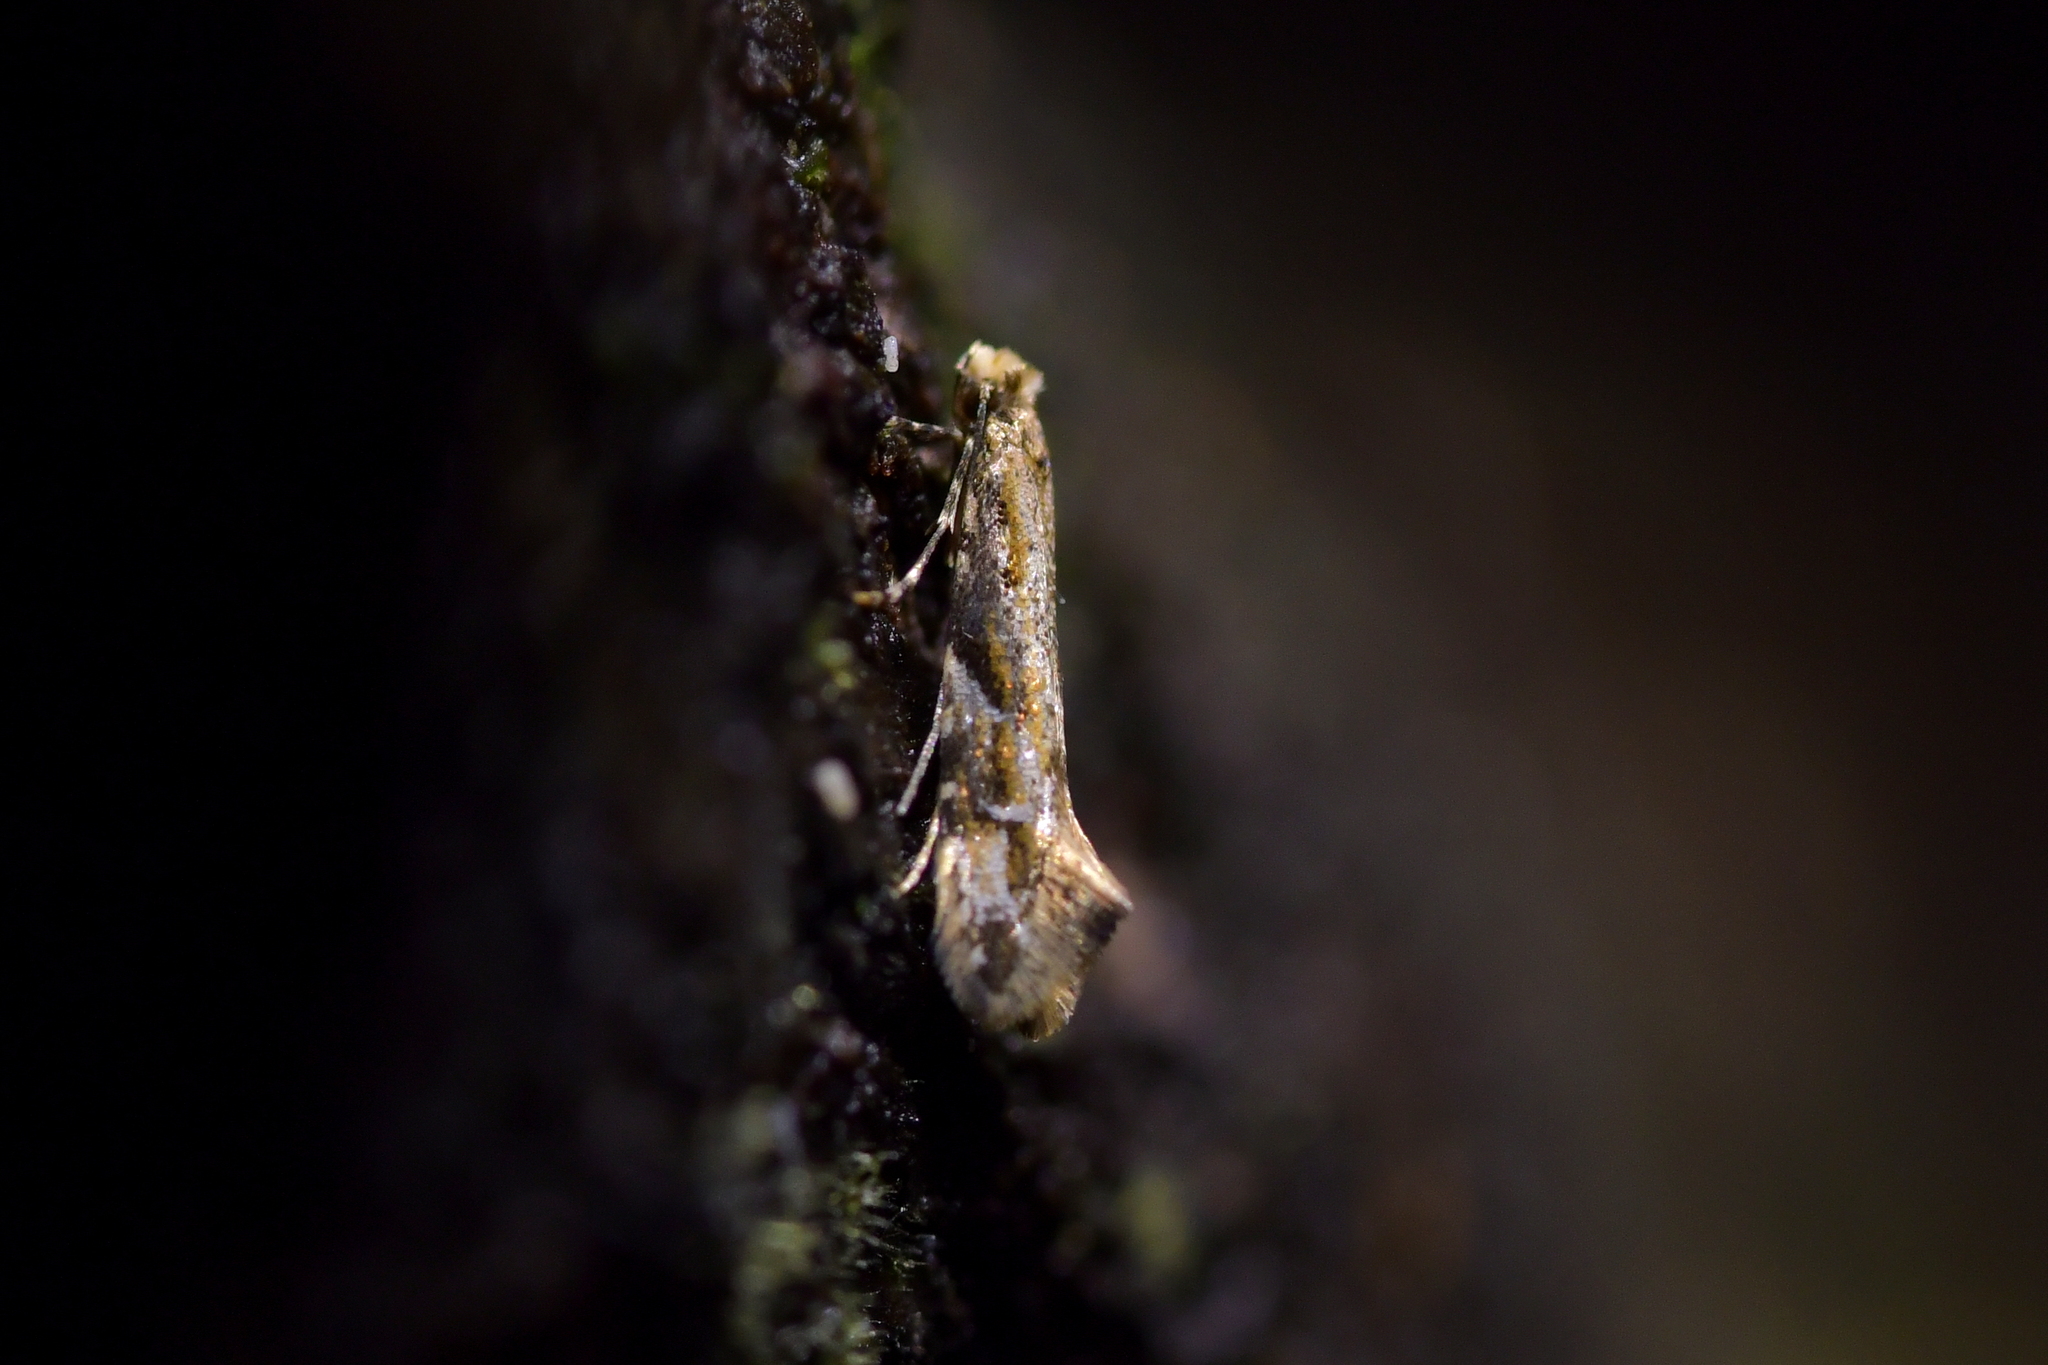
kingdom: Animalia
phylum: Arthropoda
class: Insecta
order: Lepidoptera
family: Tineidae
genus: Crypsitricha
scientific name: Crypsitricha mesotypa
